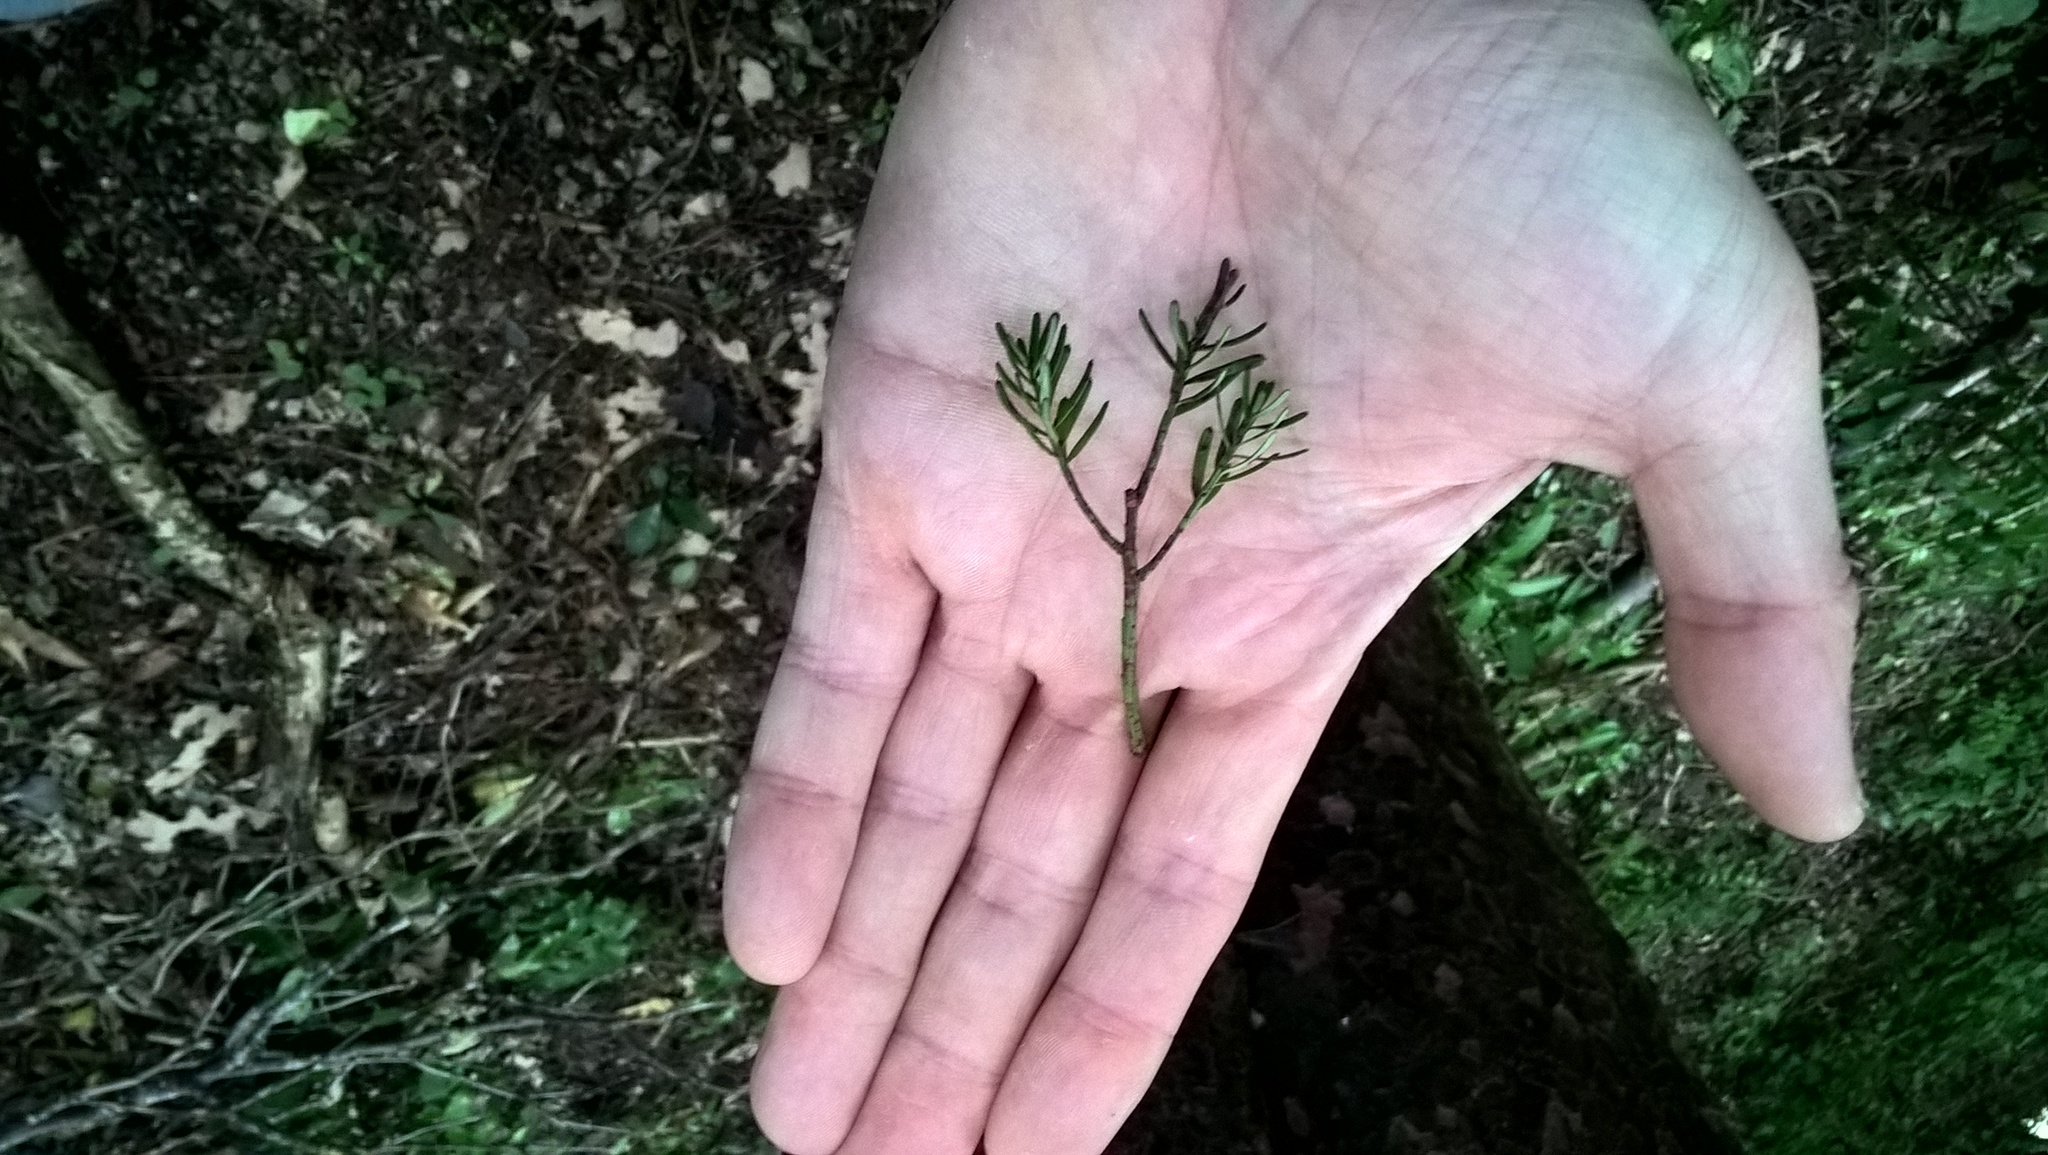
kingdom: Plantae
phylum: Tracheophyta
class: Pinopsida
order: Pinales
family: Podocarpaceae
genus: Prumnopitys
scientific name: Prumnopitys taxifolia
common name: Matai
